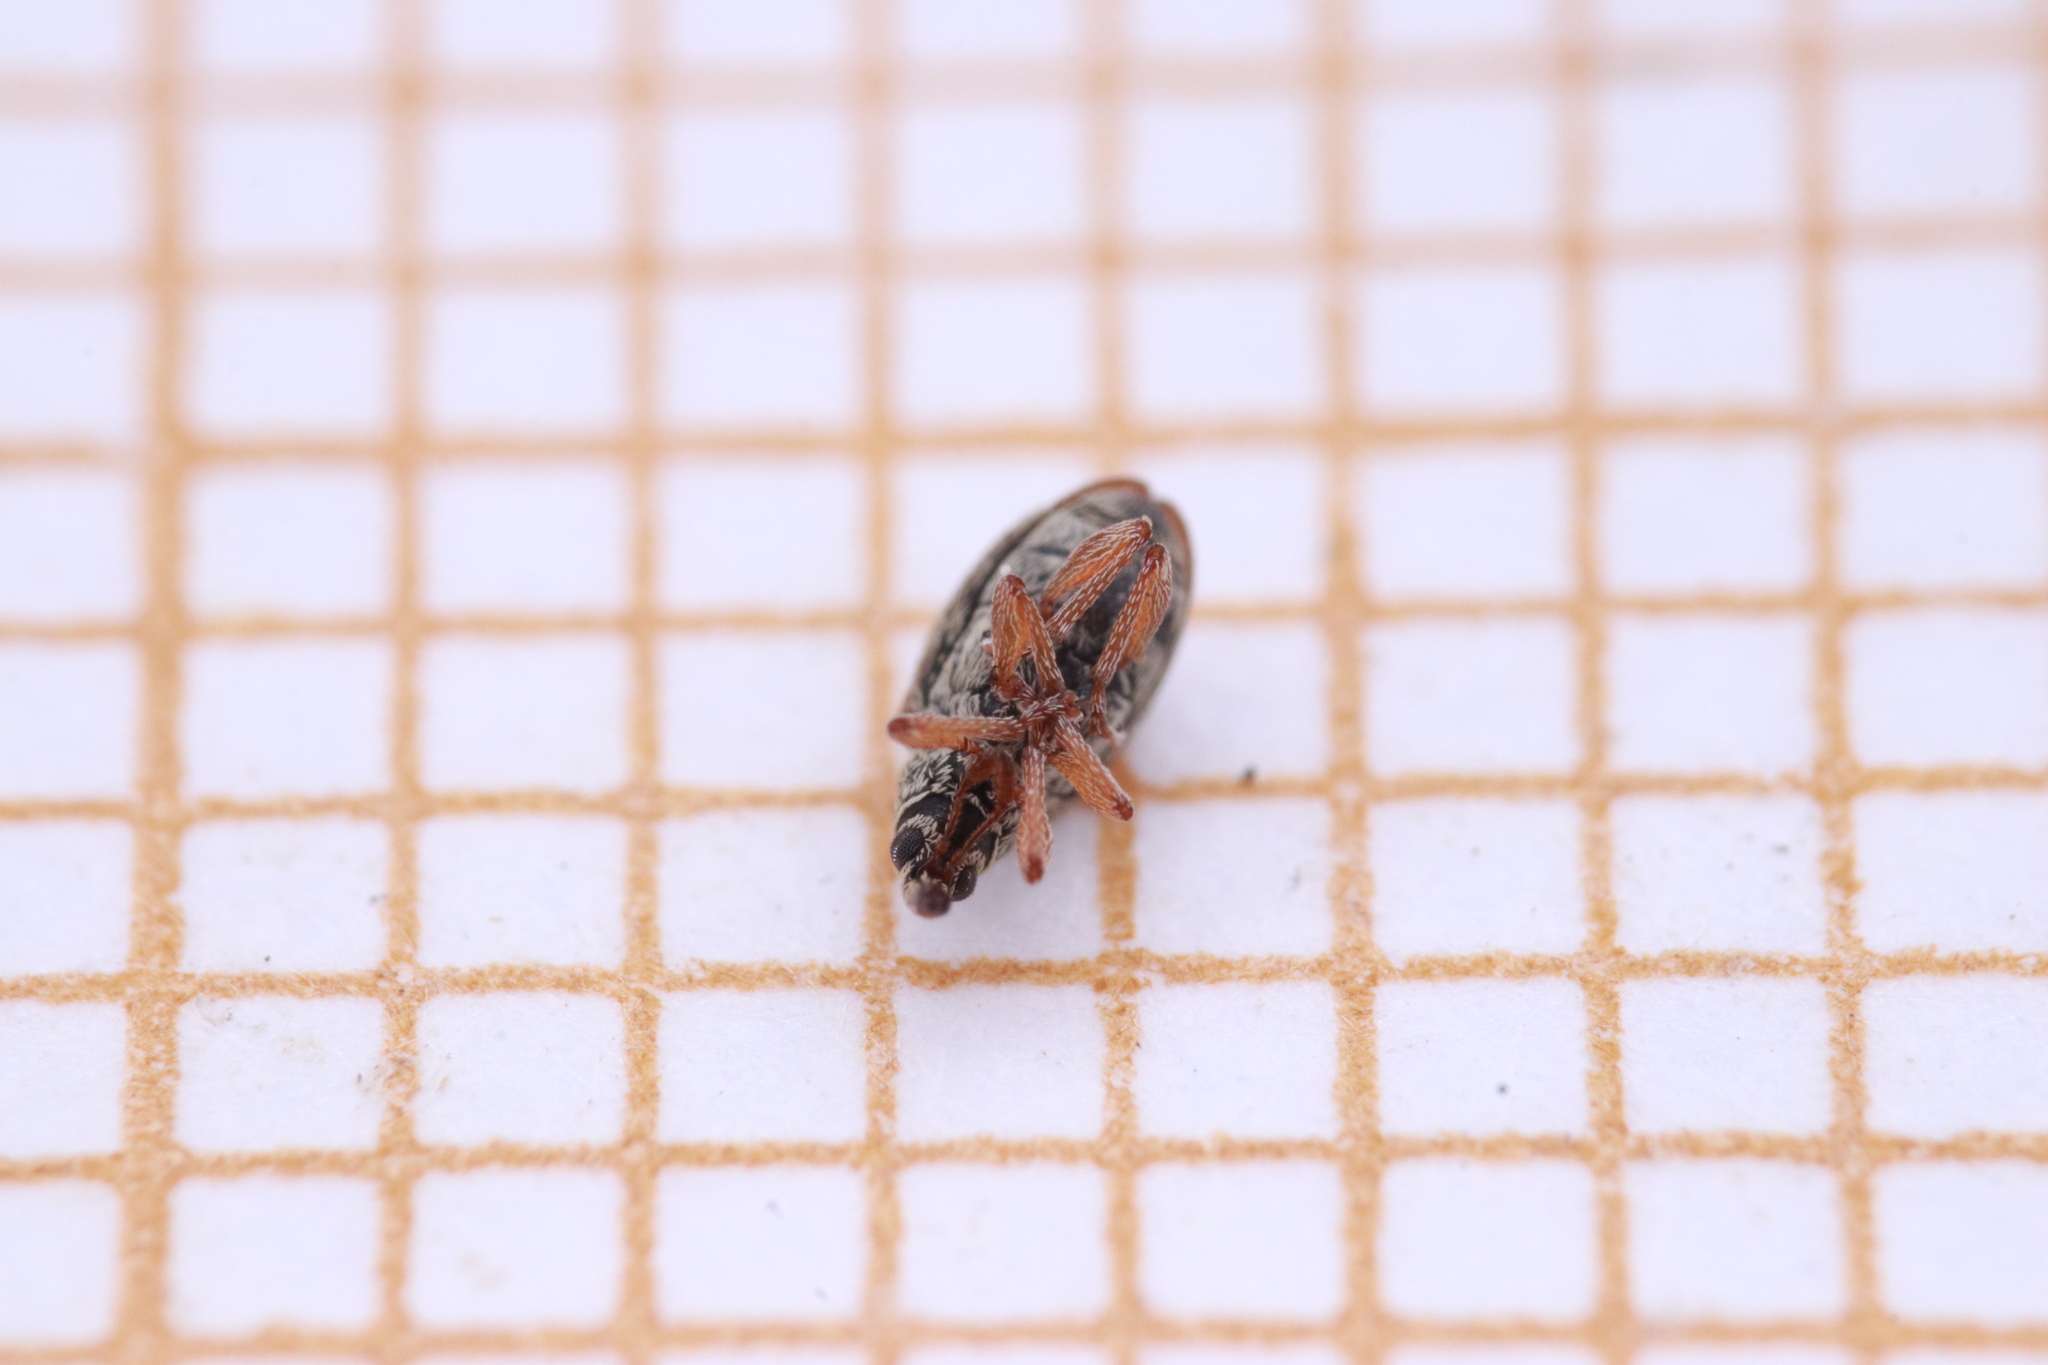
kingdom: Animalia
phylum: Arthropoda
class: Insecta
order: Coleoptera
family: Apionidae
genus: Malvapion
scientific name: Malvapion malvae
